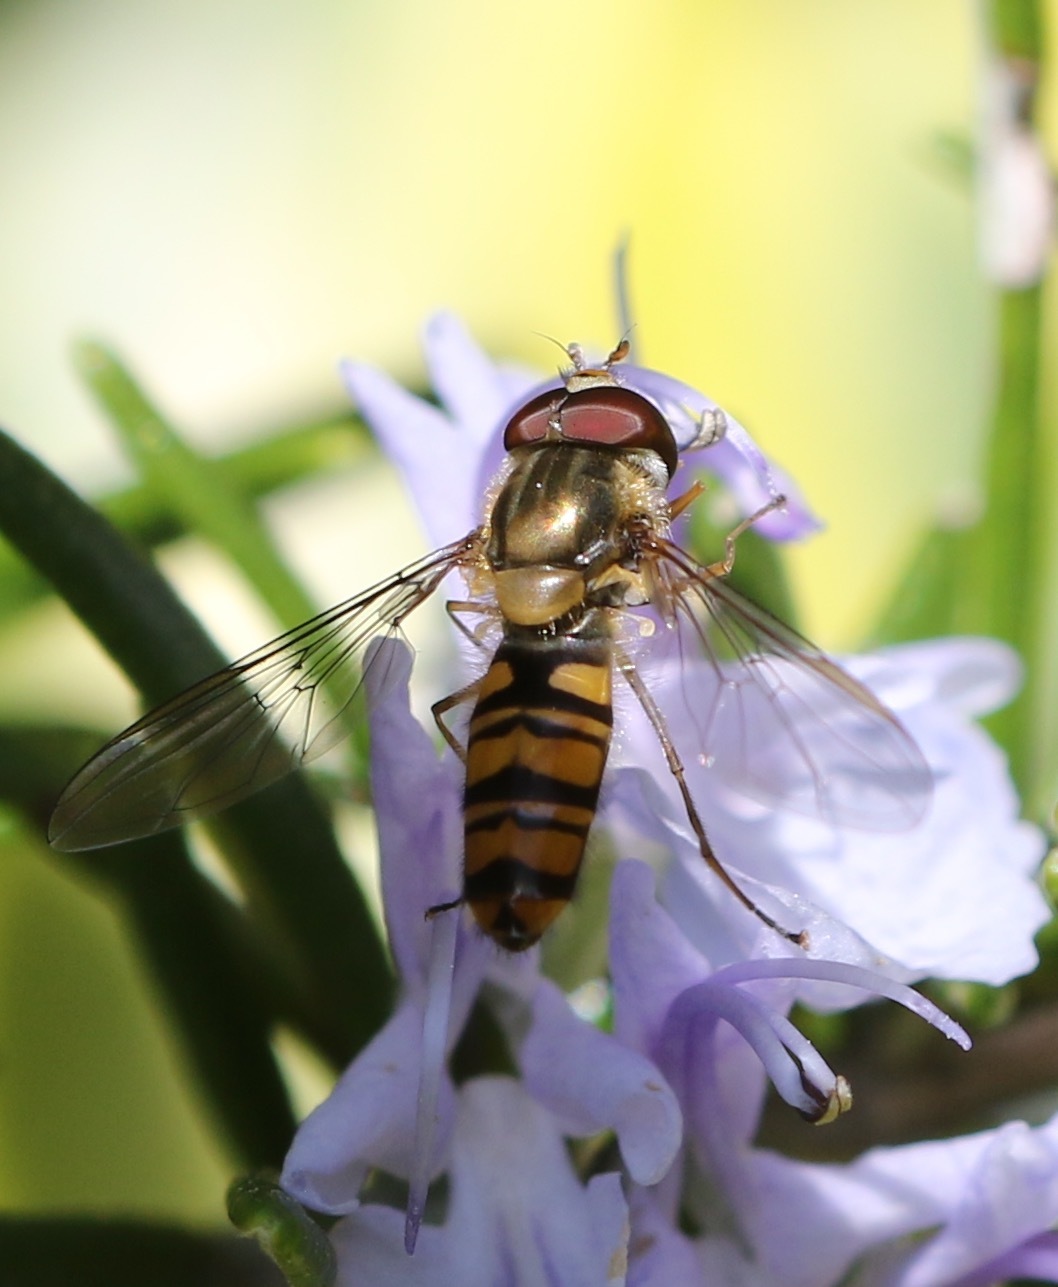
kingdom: Animalia
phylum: Arthropoda
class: Insecta
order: Diptera
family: Syrphidae
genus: Episyrphus
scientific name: Episyrphus balteatus
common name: Marmalade hoverfly
